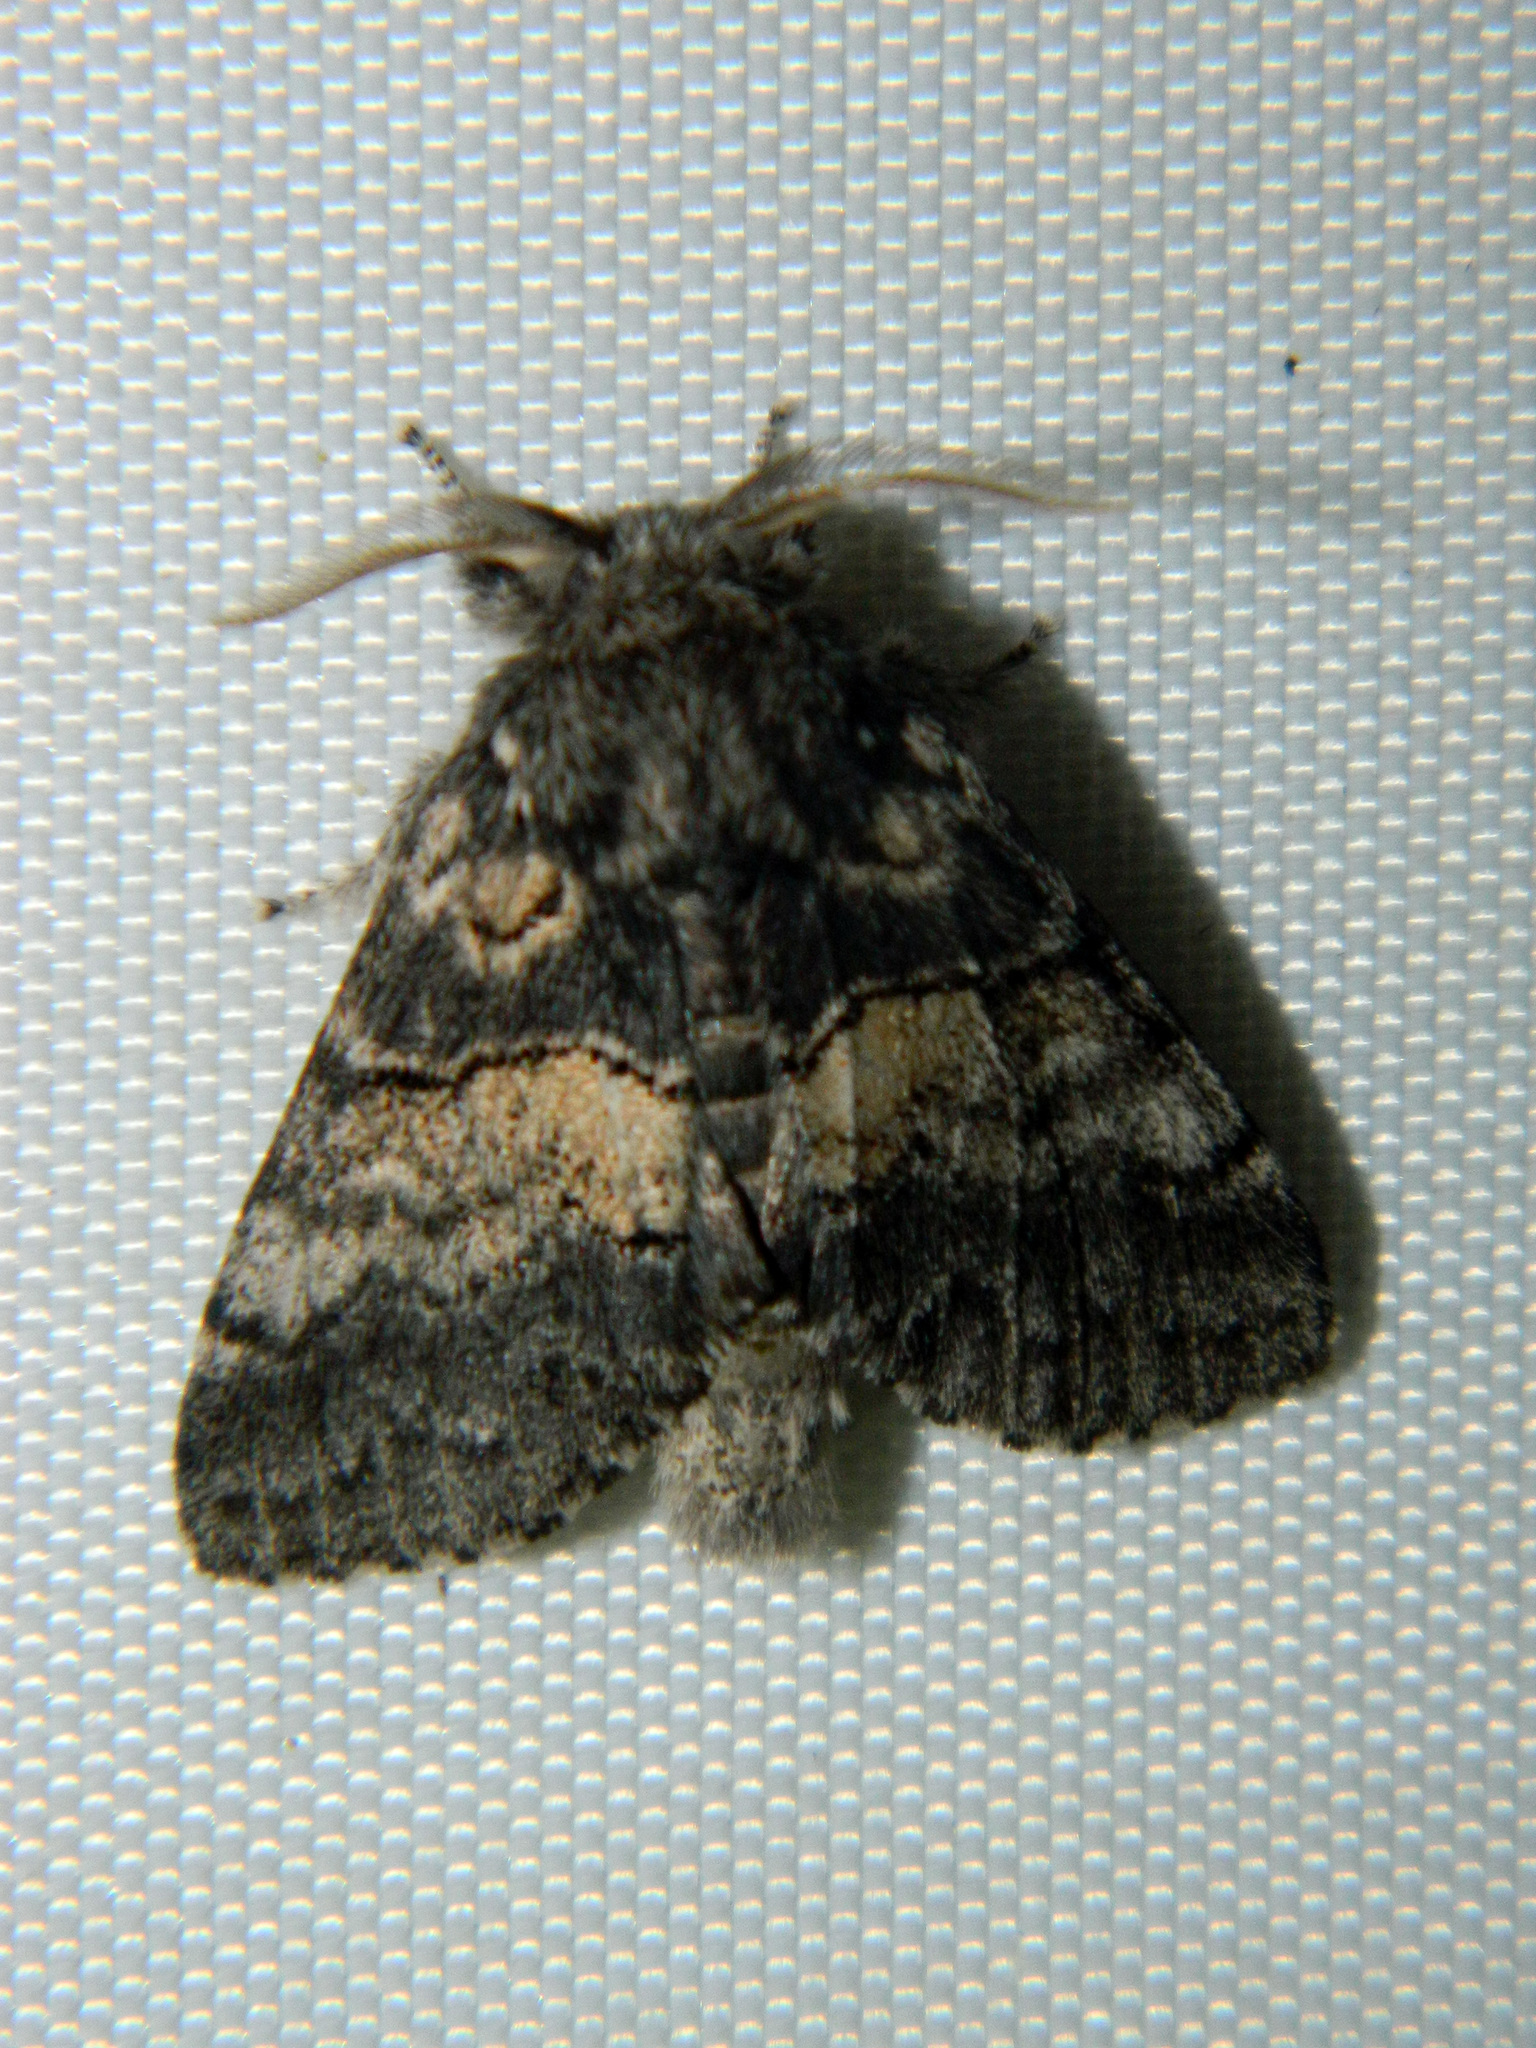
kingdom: Animalia
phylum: Arthropoda
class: Insecta
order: Lepidoptera
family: Notodontidae
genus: Gluphisia
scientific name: Gluphisia septentrionis
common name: Common gluphisia
